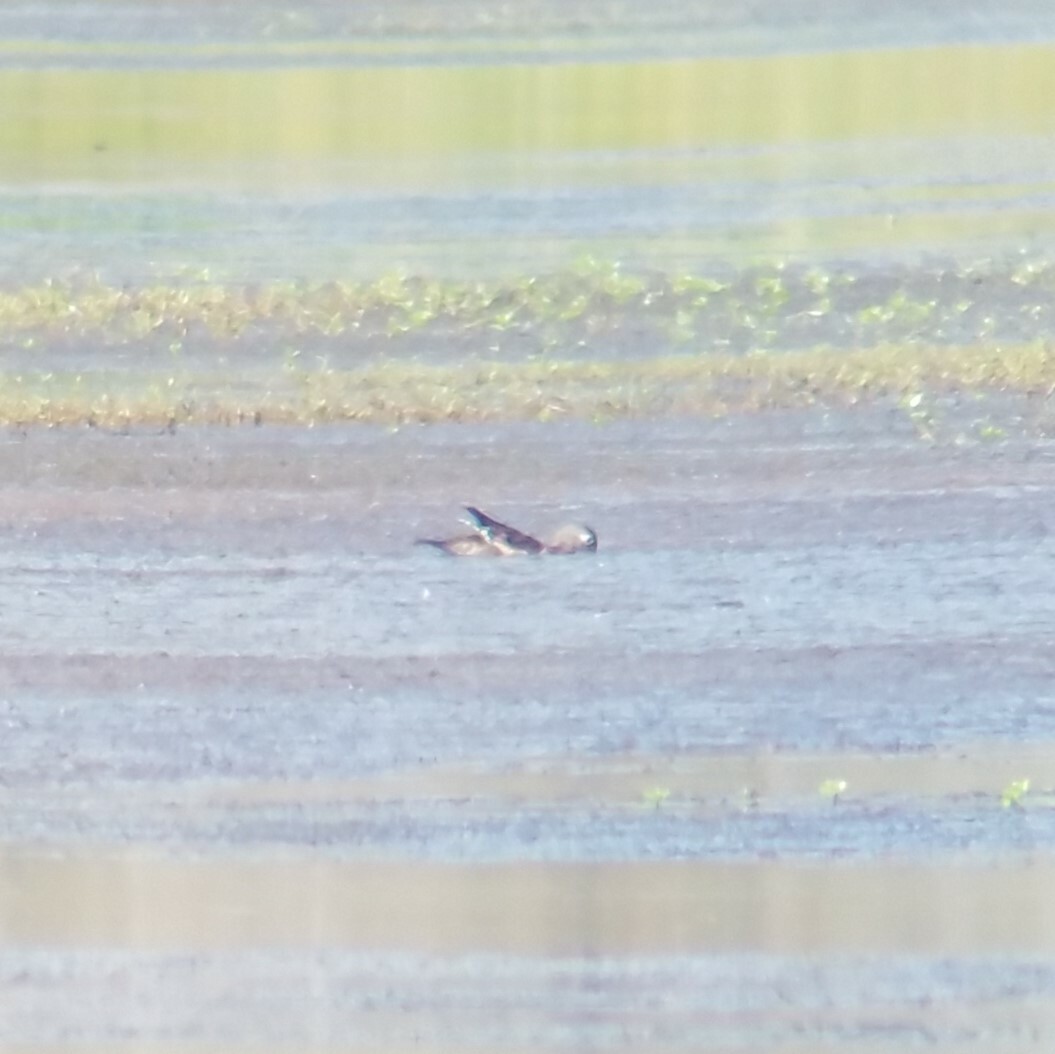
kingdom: Animalia
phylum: Chordata
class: Aves
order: Anseriformes
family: Anatidae
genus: Aix
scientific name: Aix sponsa
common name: Wood duck
